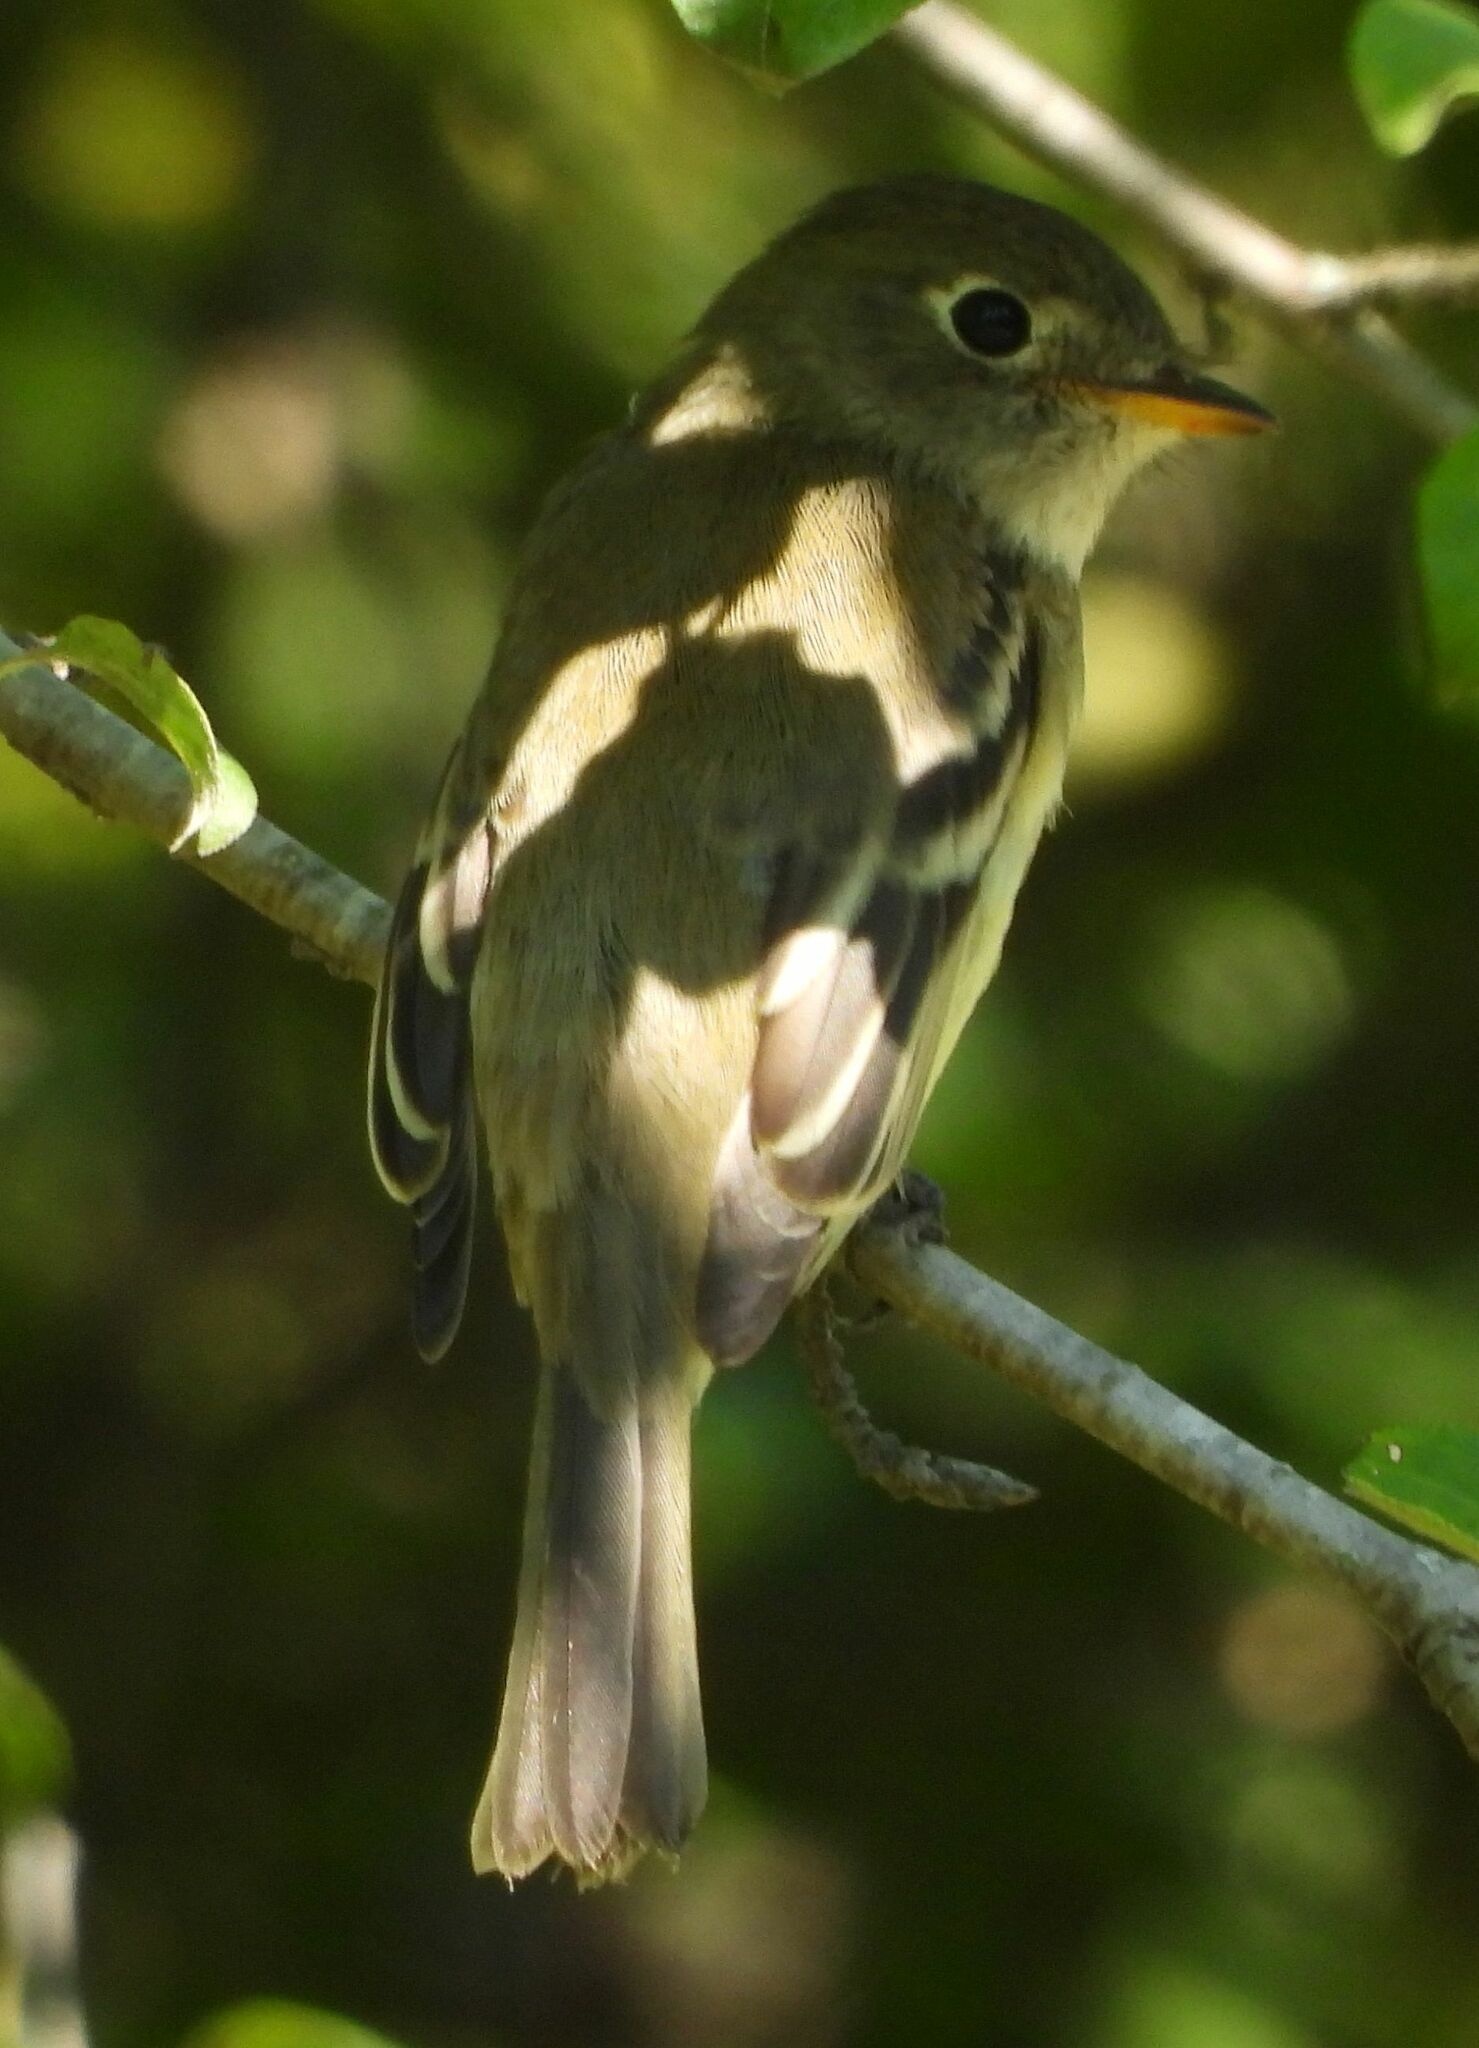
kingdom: Animalia
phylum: Chordata
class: Aves
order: Passeriformes
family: Tyrannidae
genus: Empidonax
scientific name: Empidonax minimus
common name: Least flycatcher
